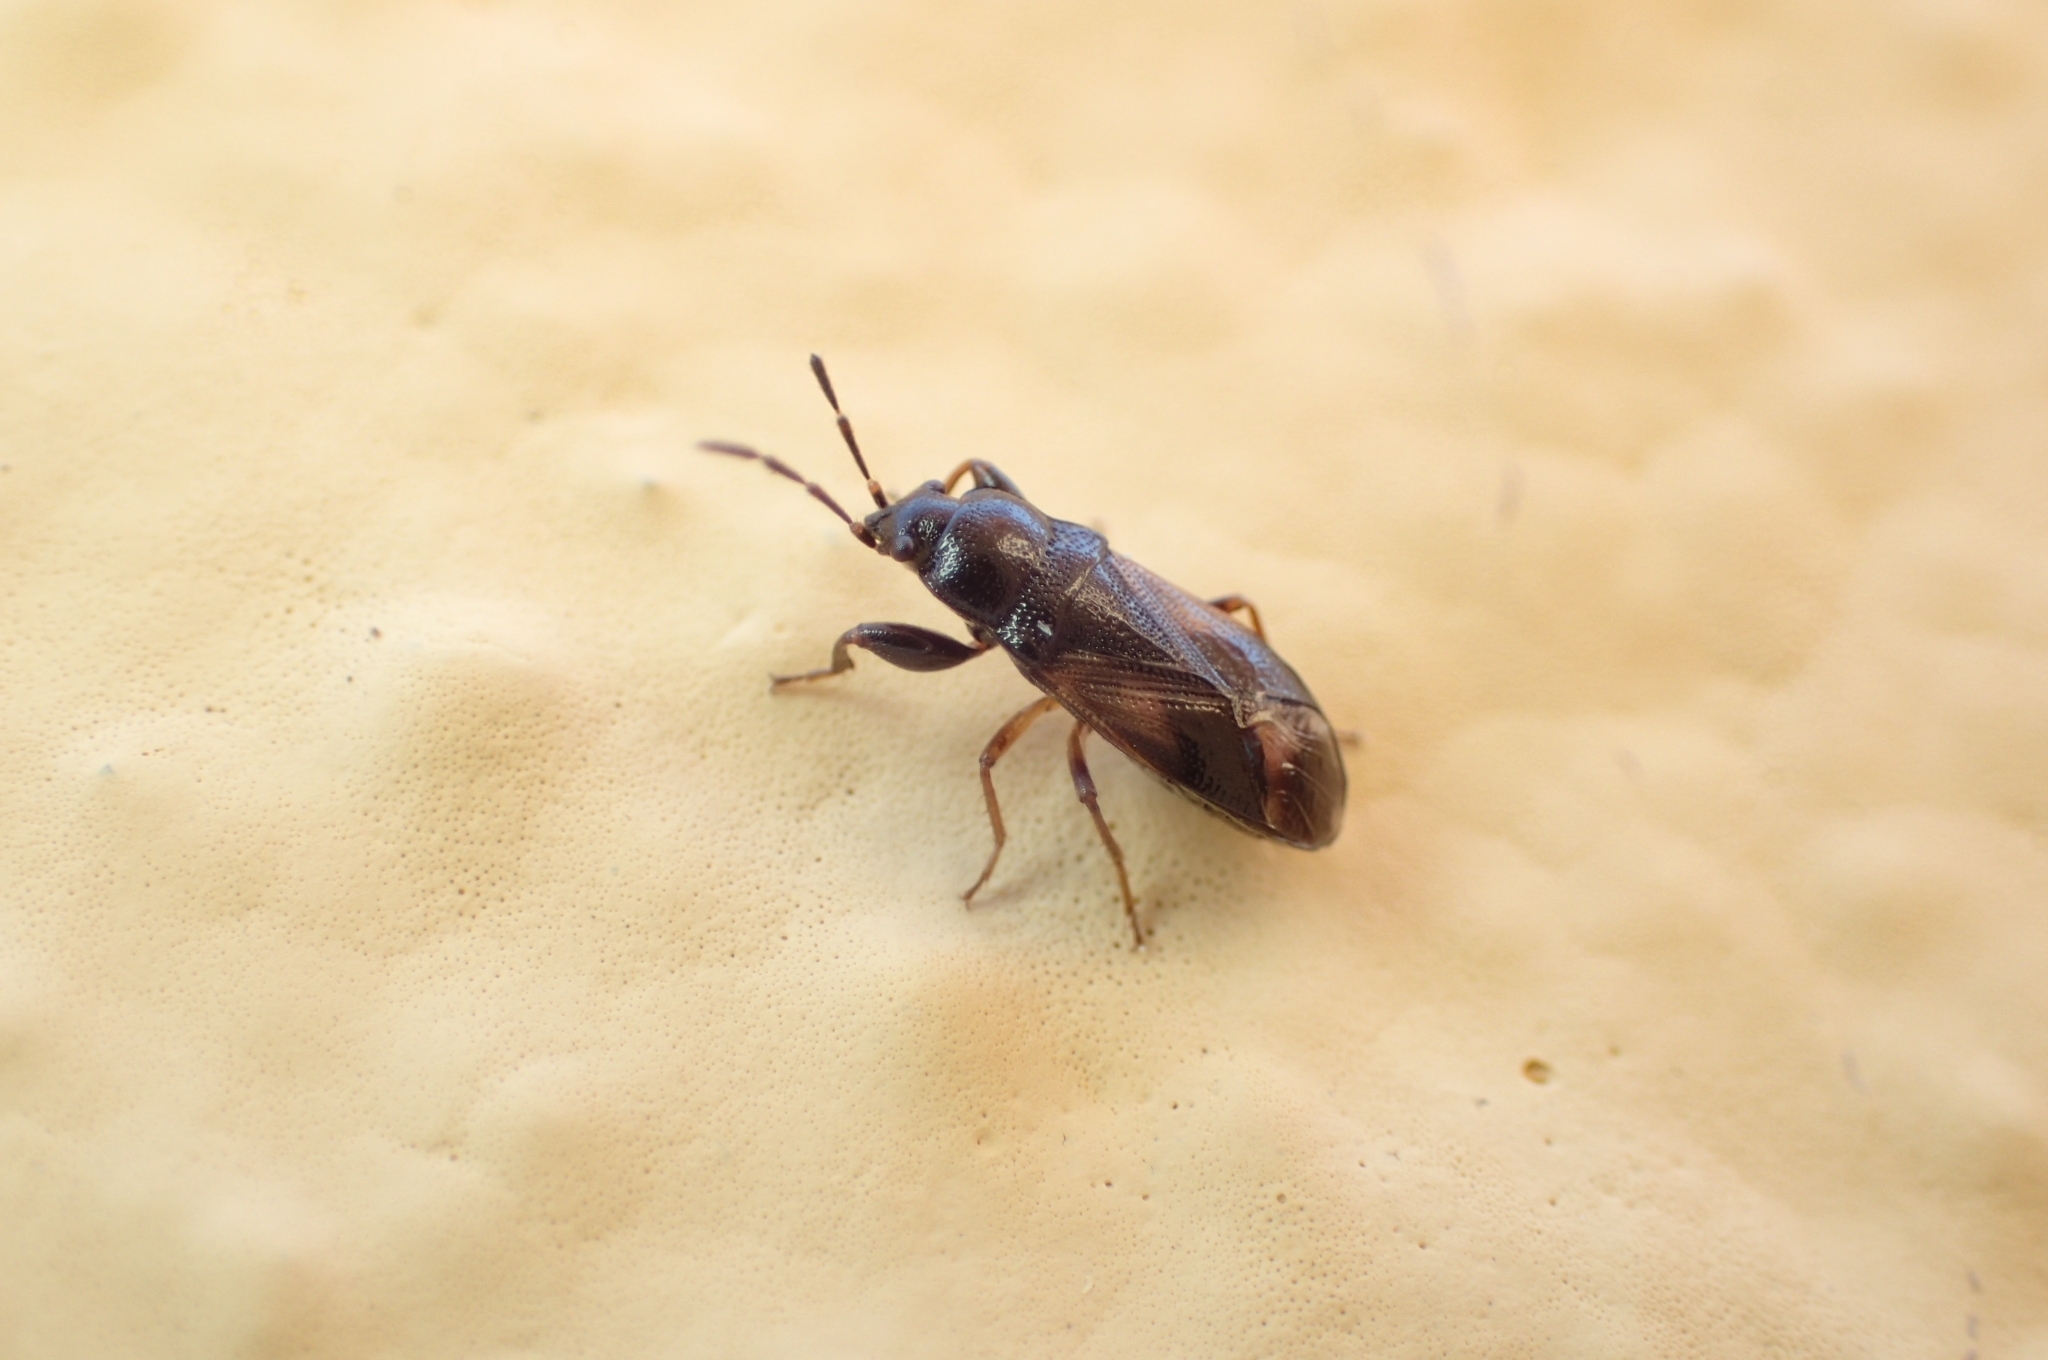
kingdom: Animalia
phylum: Arthropoda
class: Insecta
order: Hemiptera
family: Rhyparochromidae
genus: Megalonotus
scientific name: Megalonotus praetextatus
